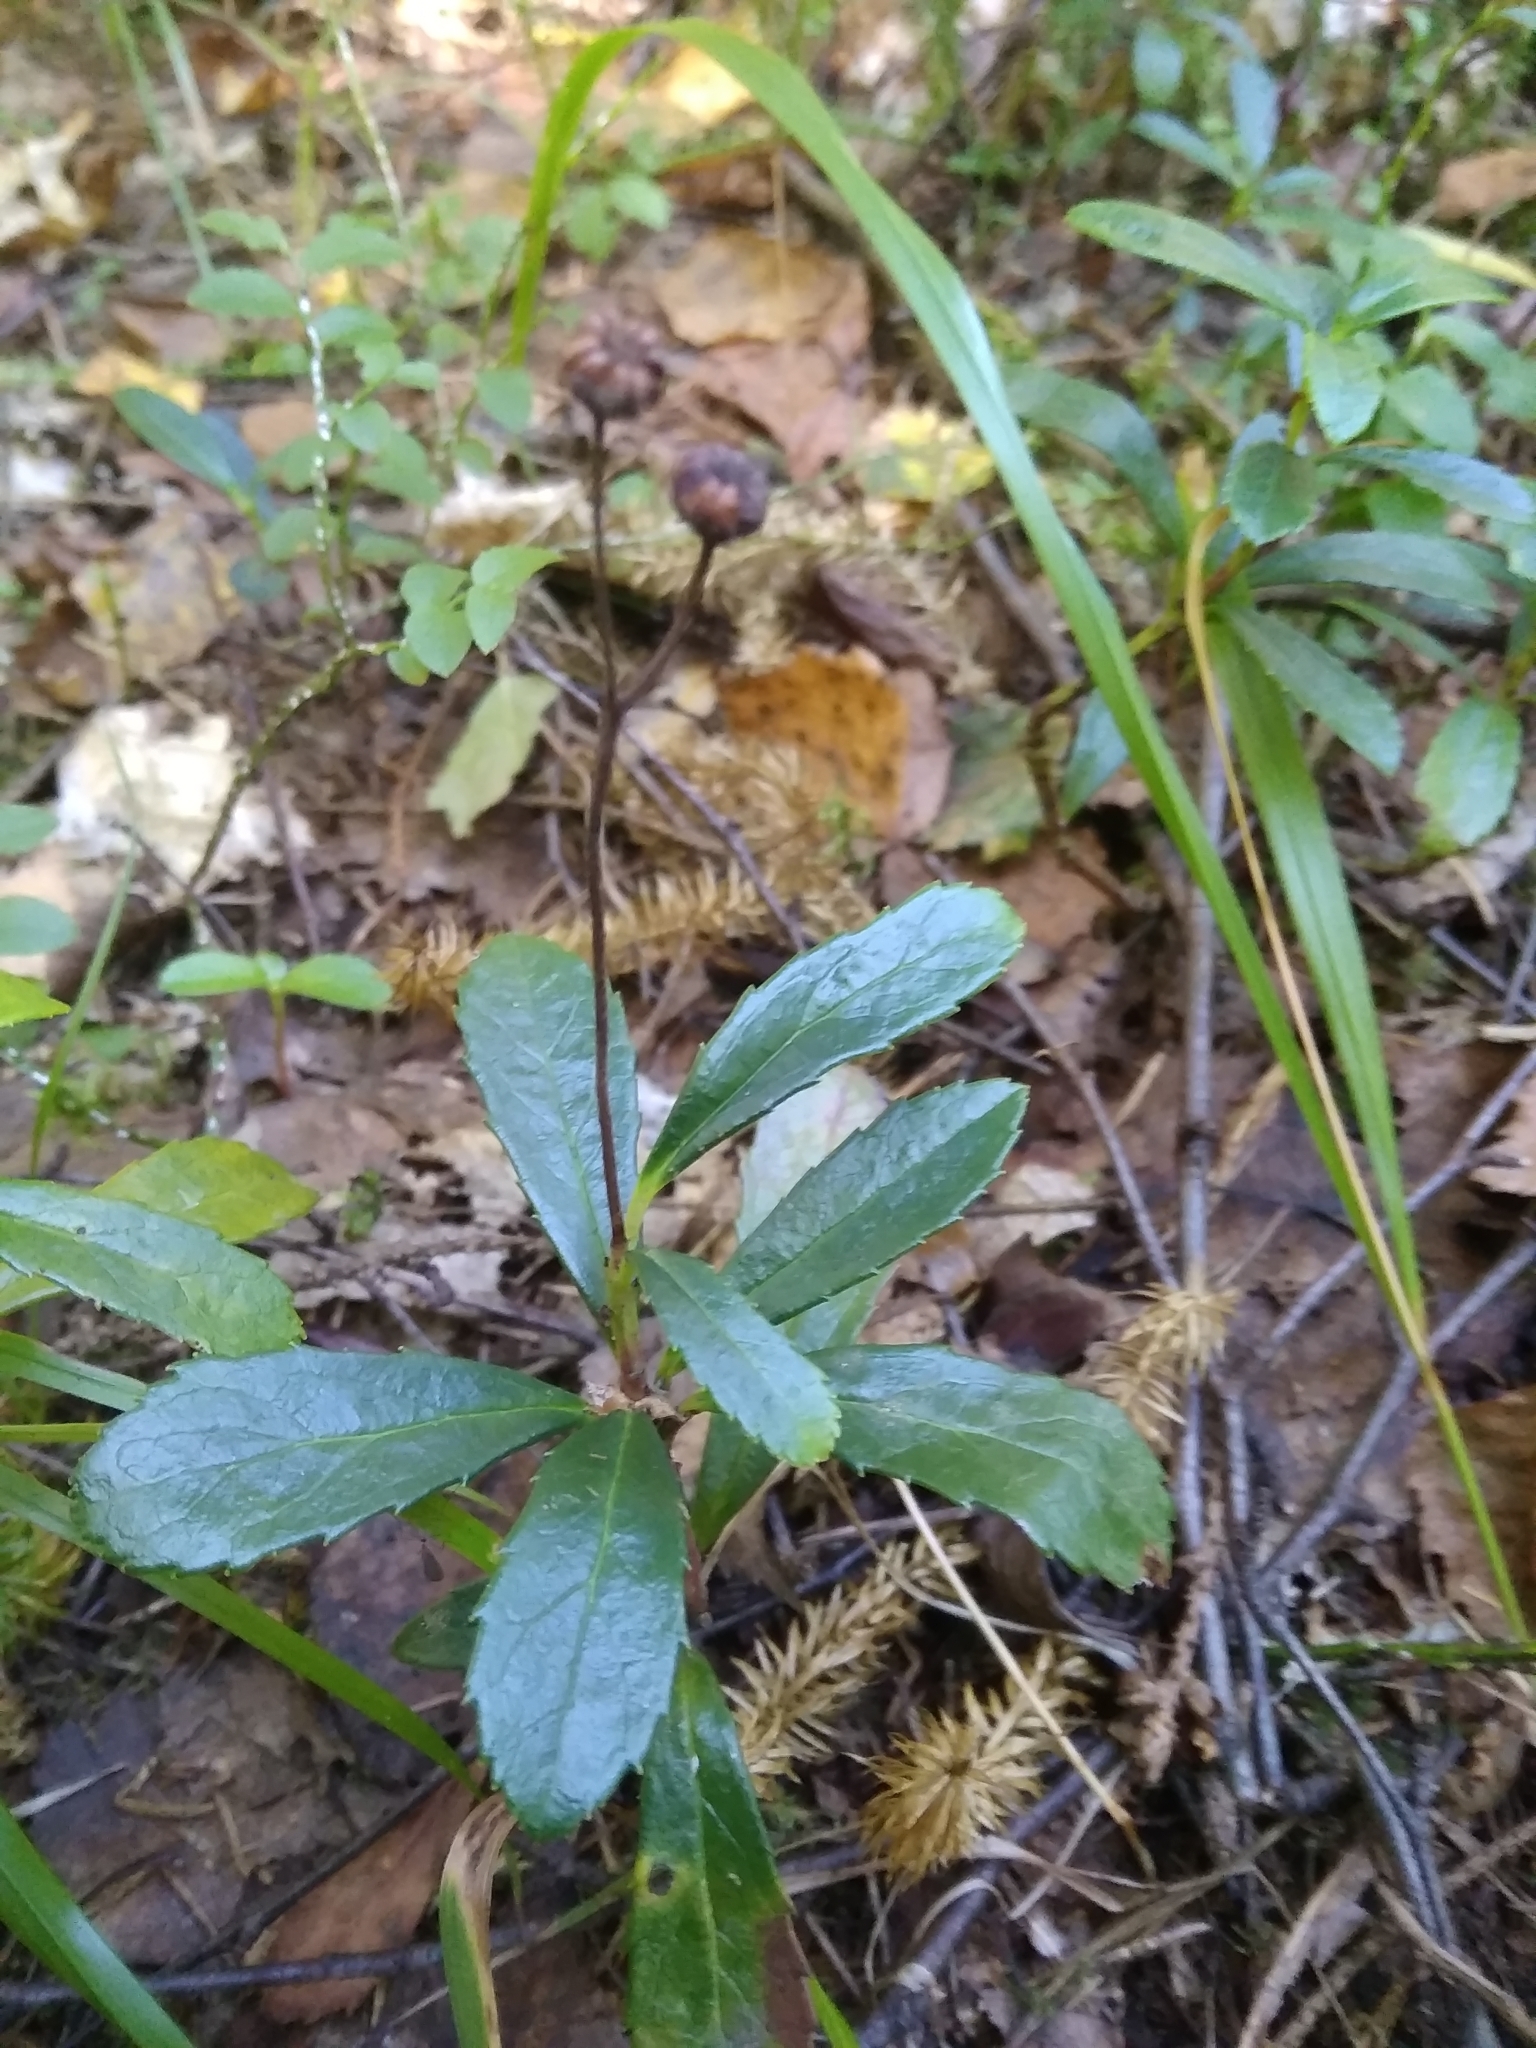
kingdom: Plantae
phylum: Tracheophyta
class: Magnoliopsida
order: Ericales
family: Ericaceae
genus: Chimaphila
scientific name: Chimaphila umbellata
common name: Pipsissewa
